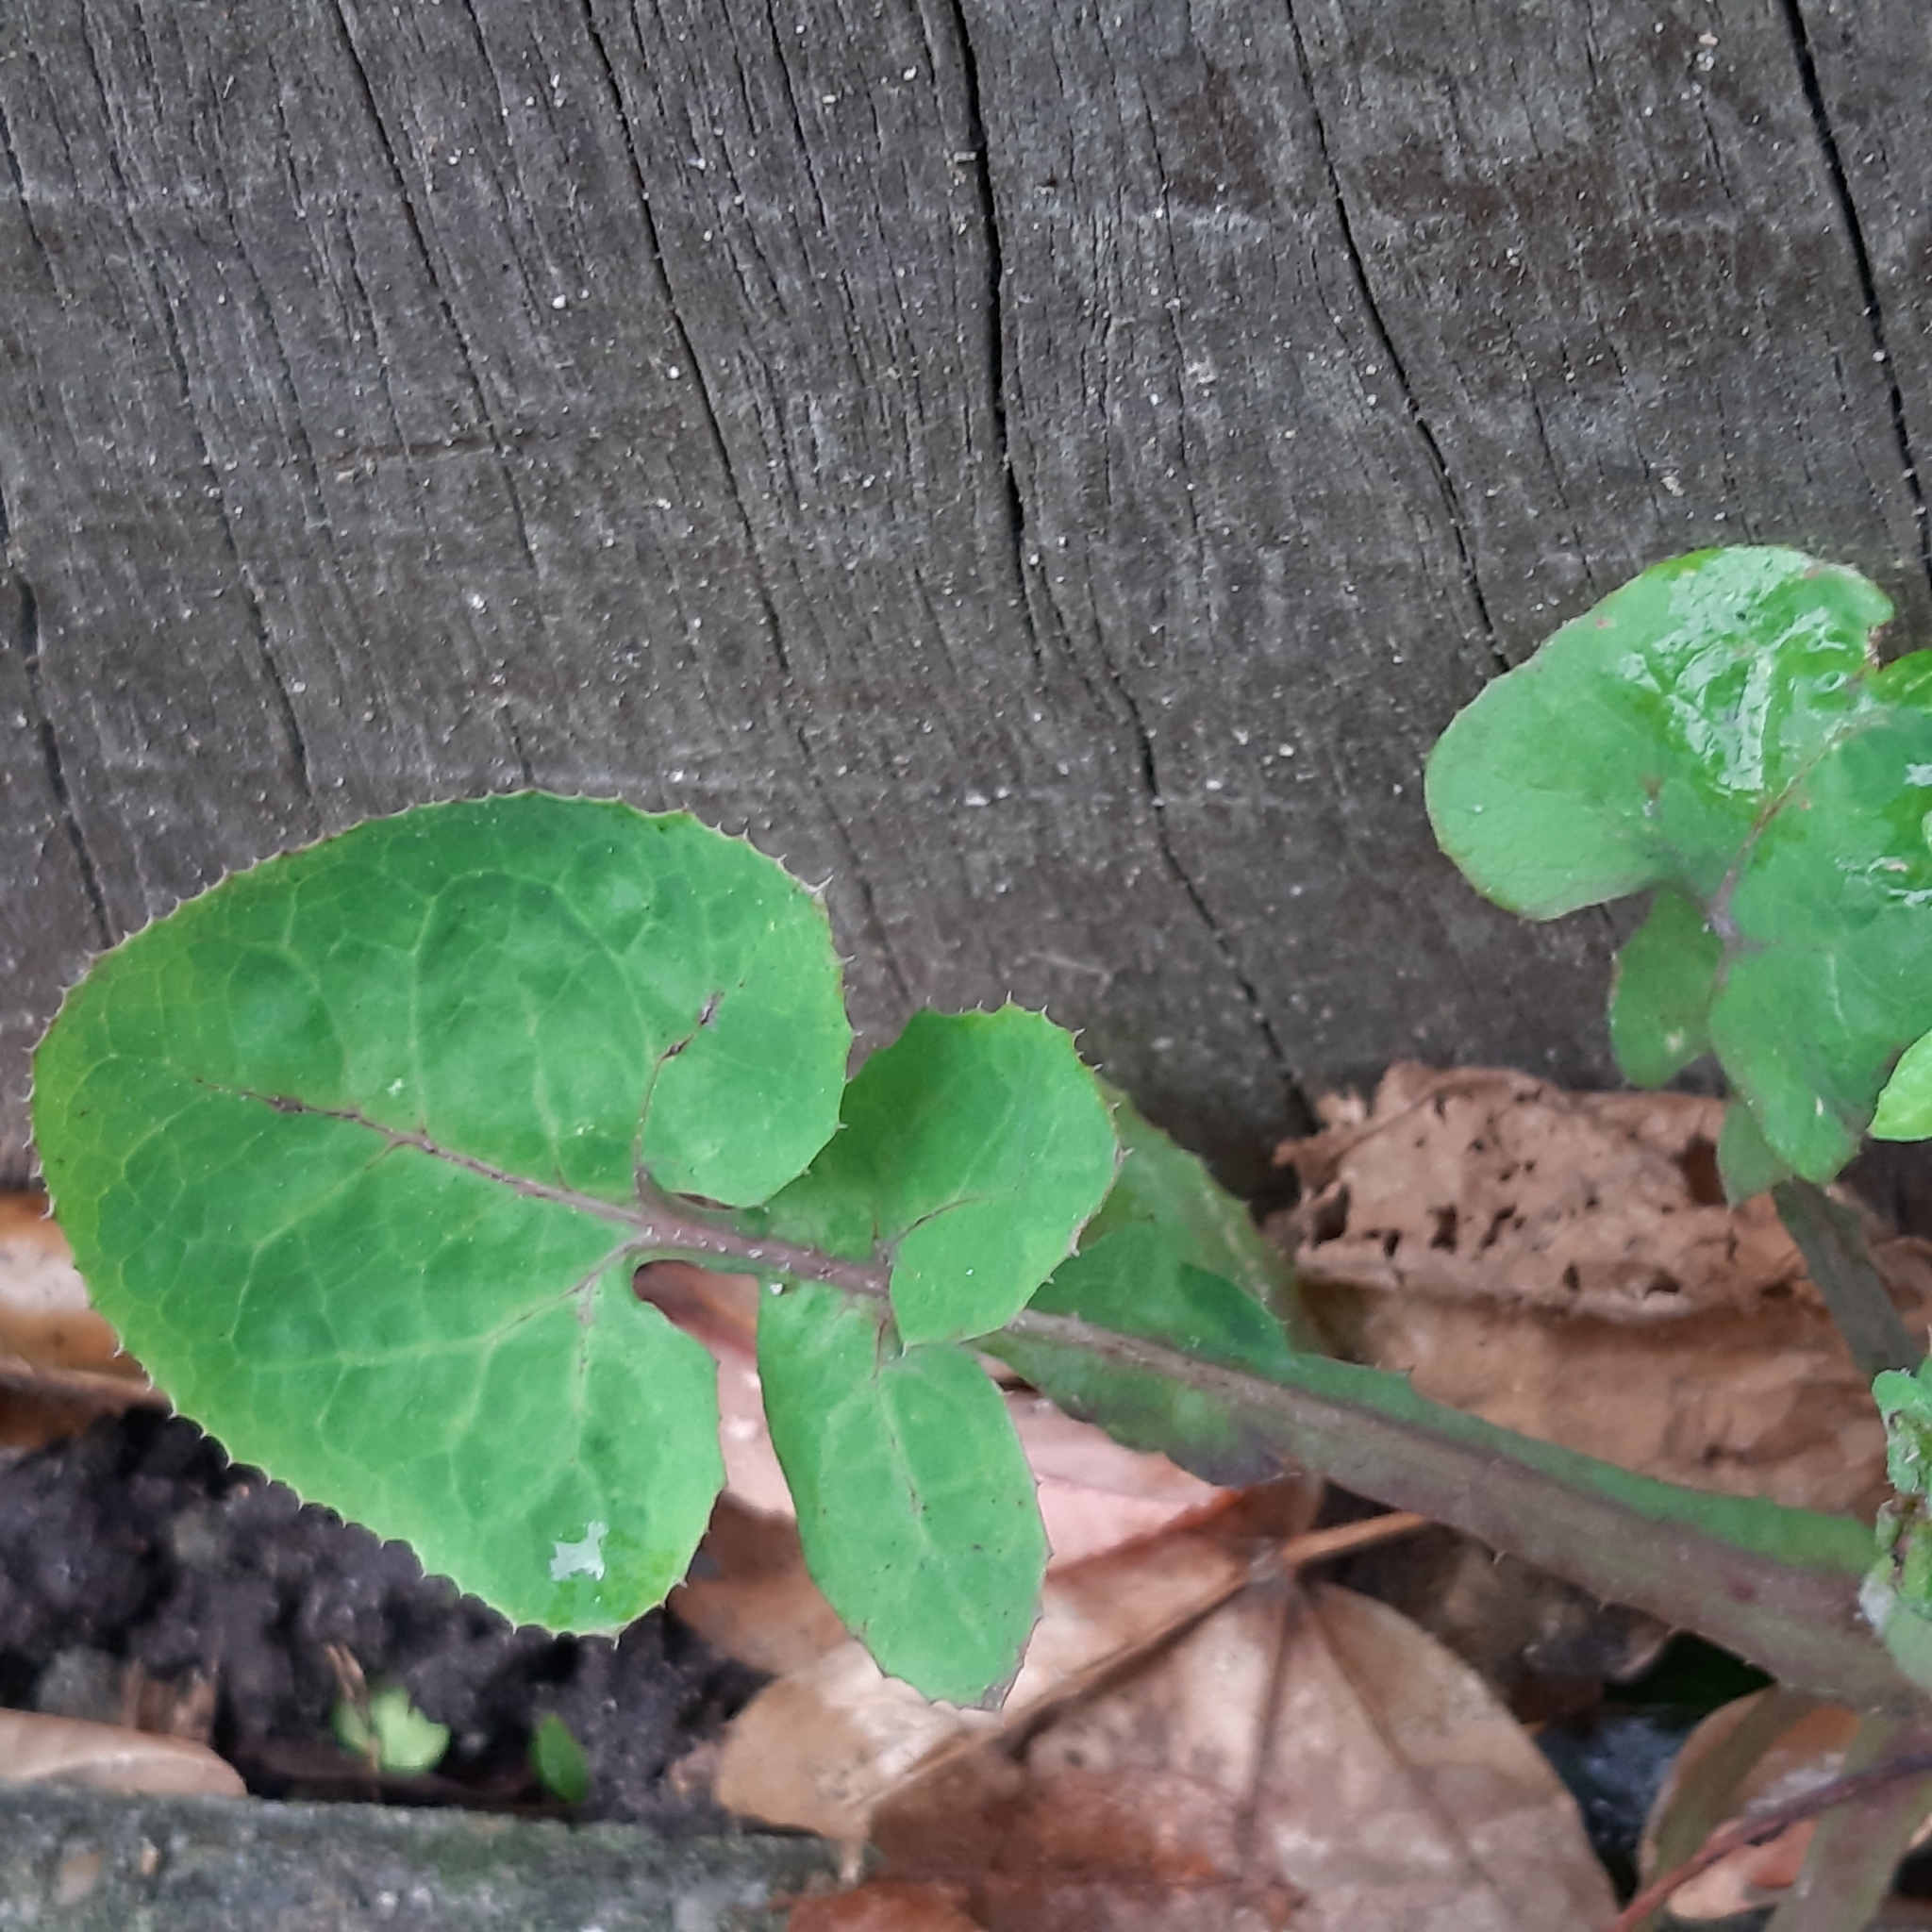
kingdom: Plantae
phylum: Tracheophyta
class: Magnoliopsida
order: Asterales
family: Asteraceae
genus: Sonchus
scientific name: Sonchus oleraceus
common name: Common sowthistle
